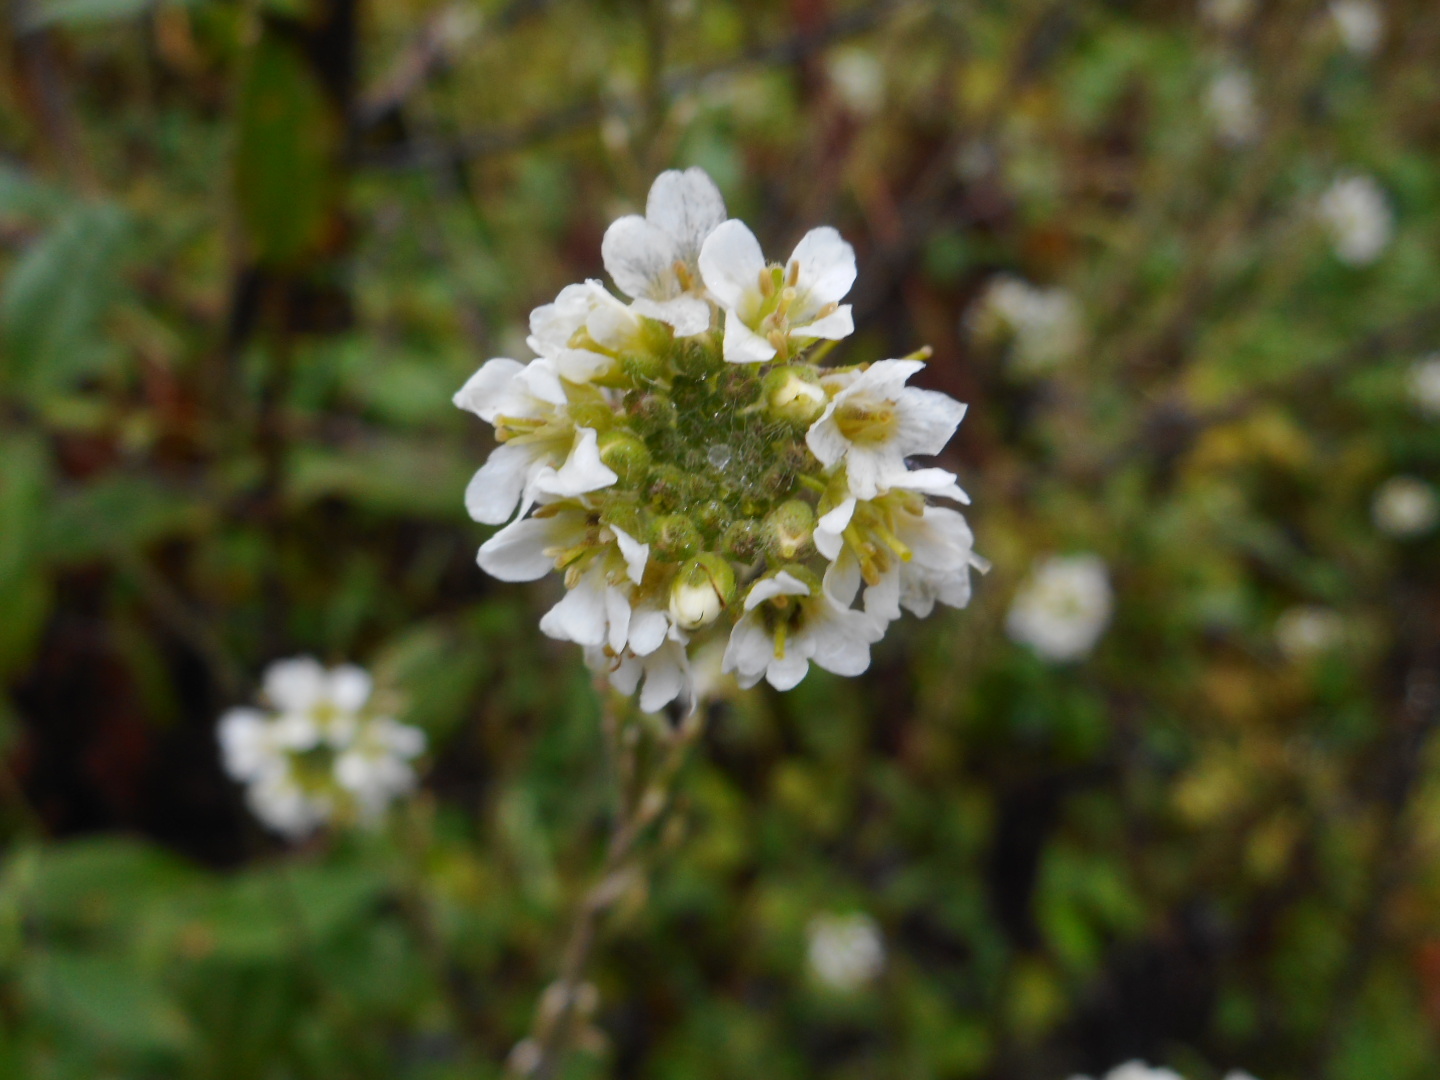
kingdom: Plantae
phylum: Tracheophyta
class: Magnoliopsida
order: Brassicales
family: Brassicaceae
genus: Berteroa
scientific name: Berteroa incana
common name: Hoary alison
